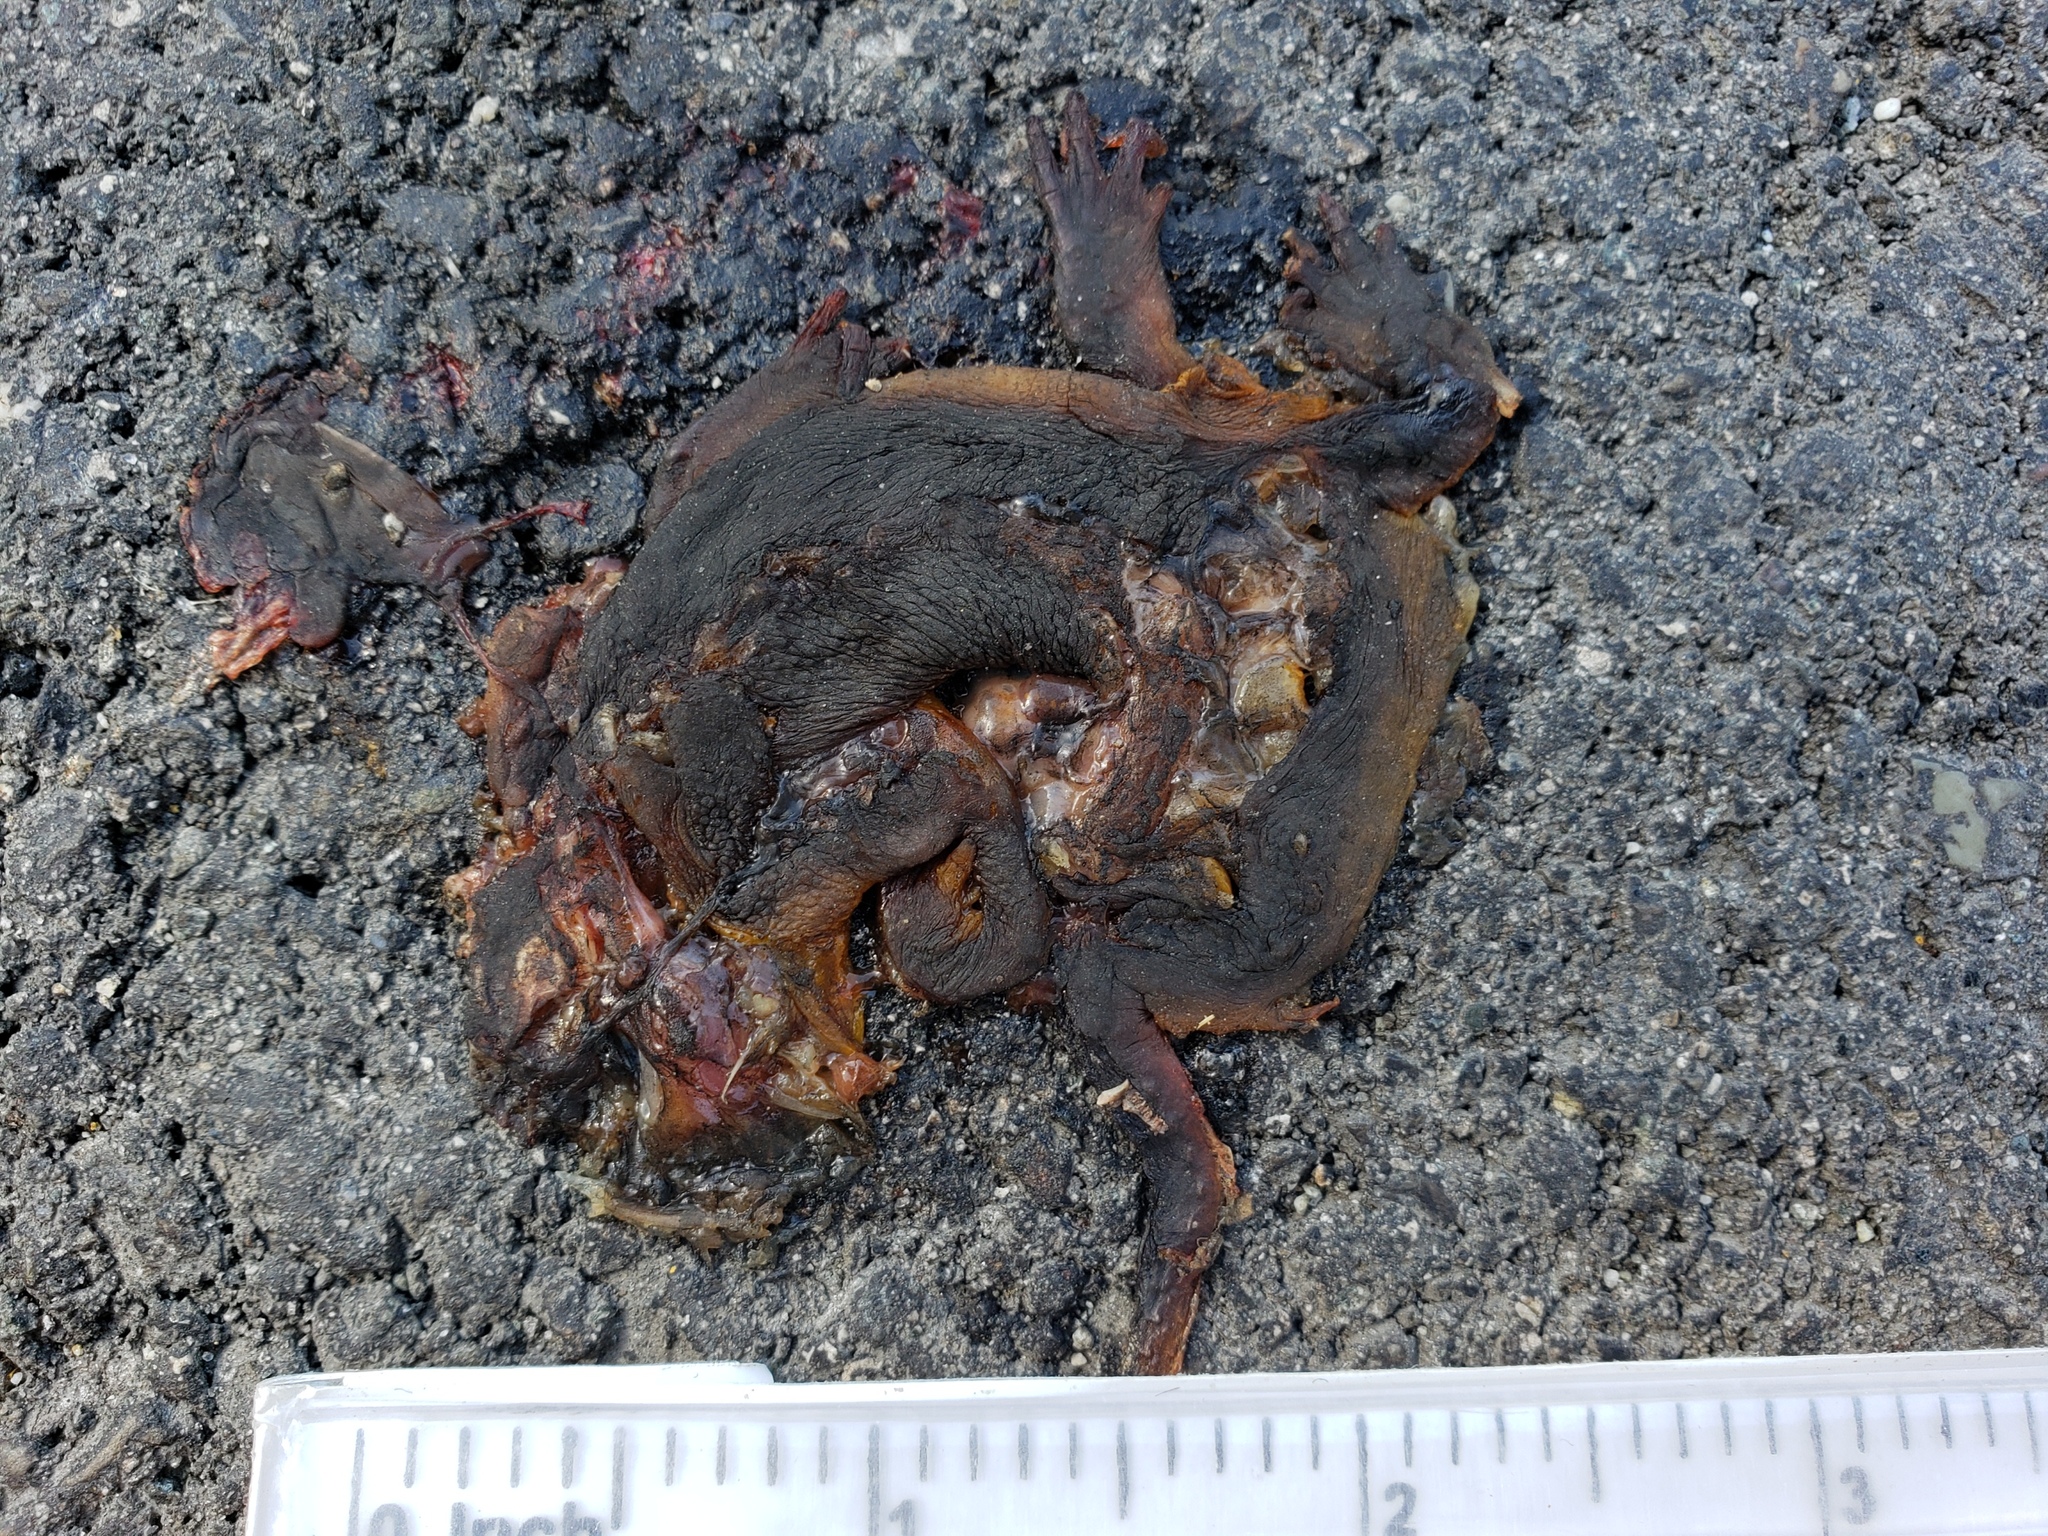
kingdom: Animalia
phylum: Chordata
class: Amphibia
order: Caudata
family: Salamandridae
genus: Taricha
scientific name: Taricha
